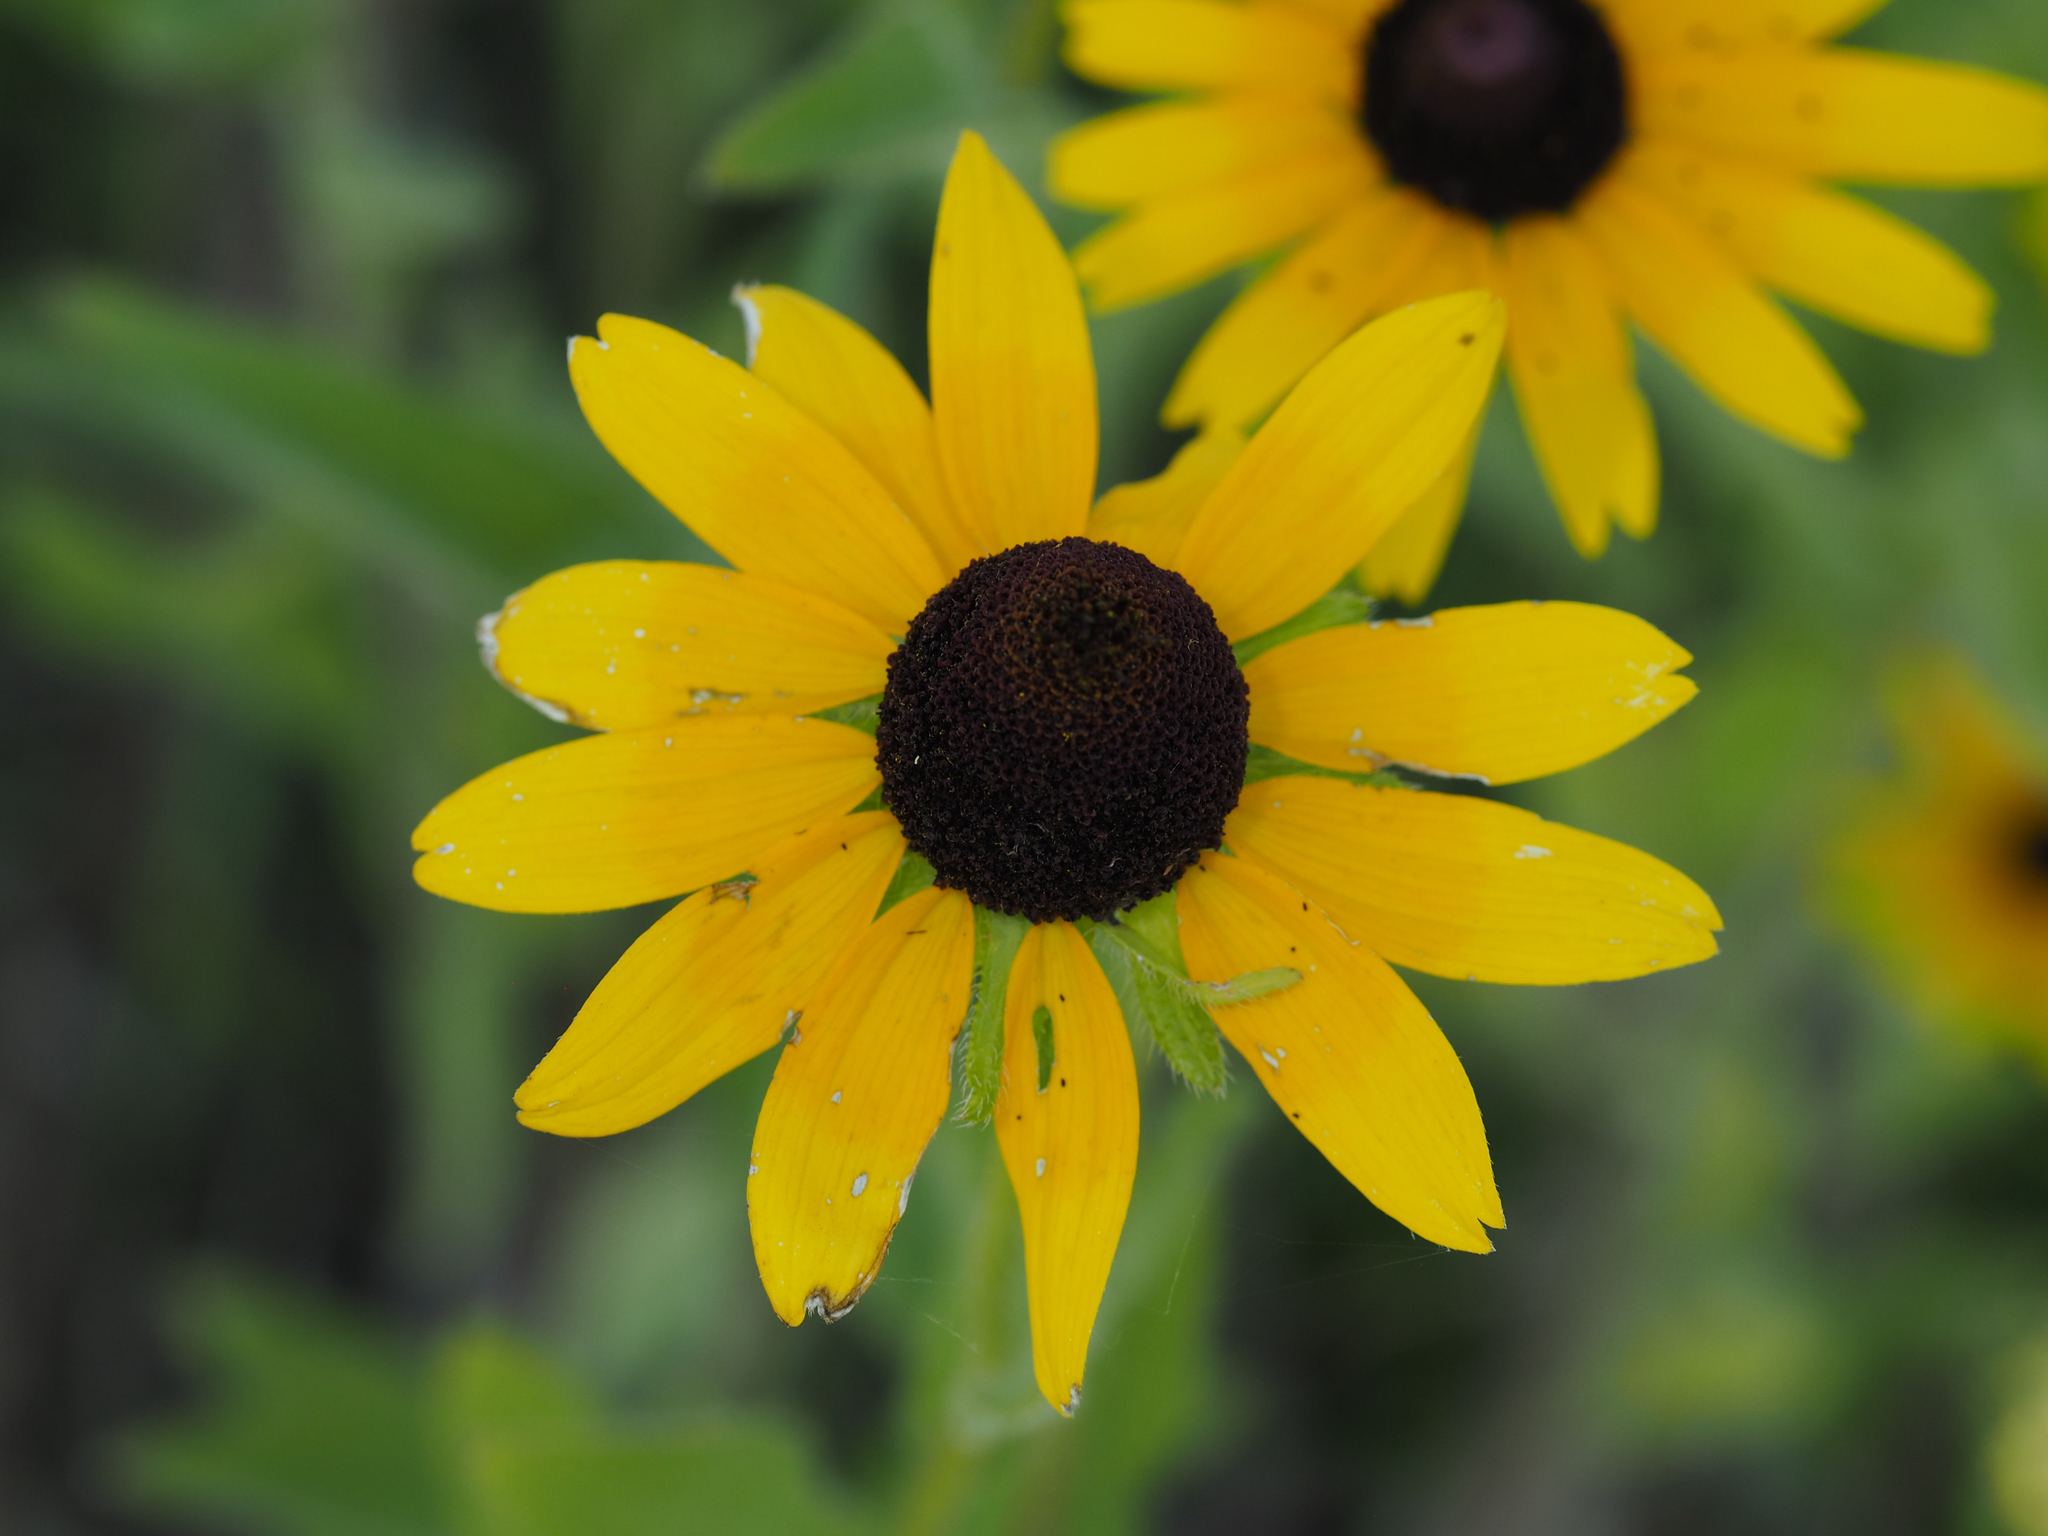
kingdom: Plantae
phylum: Tracheophyta
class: Magnoliopsida
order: Asterales
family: Asteraceae
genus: Rudbeckia
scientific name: Rudbeckia hirta
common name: Black-eyed-susan
